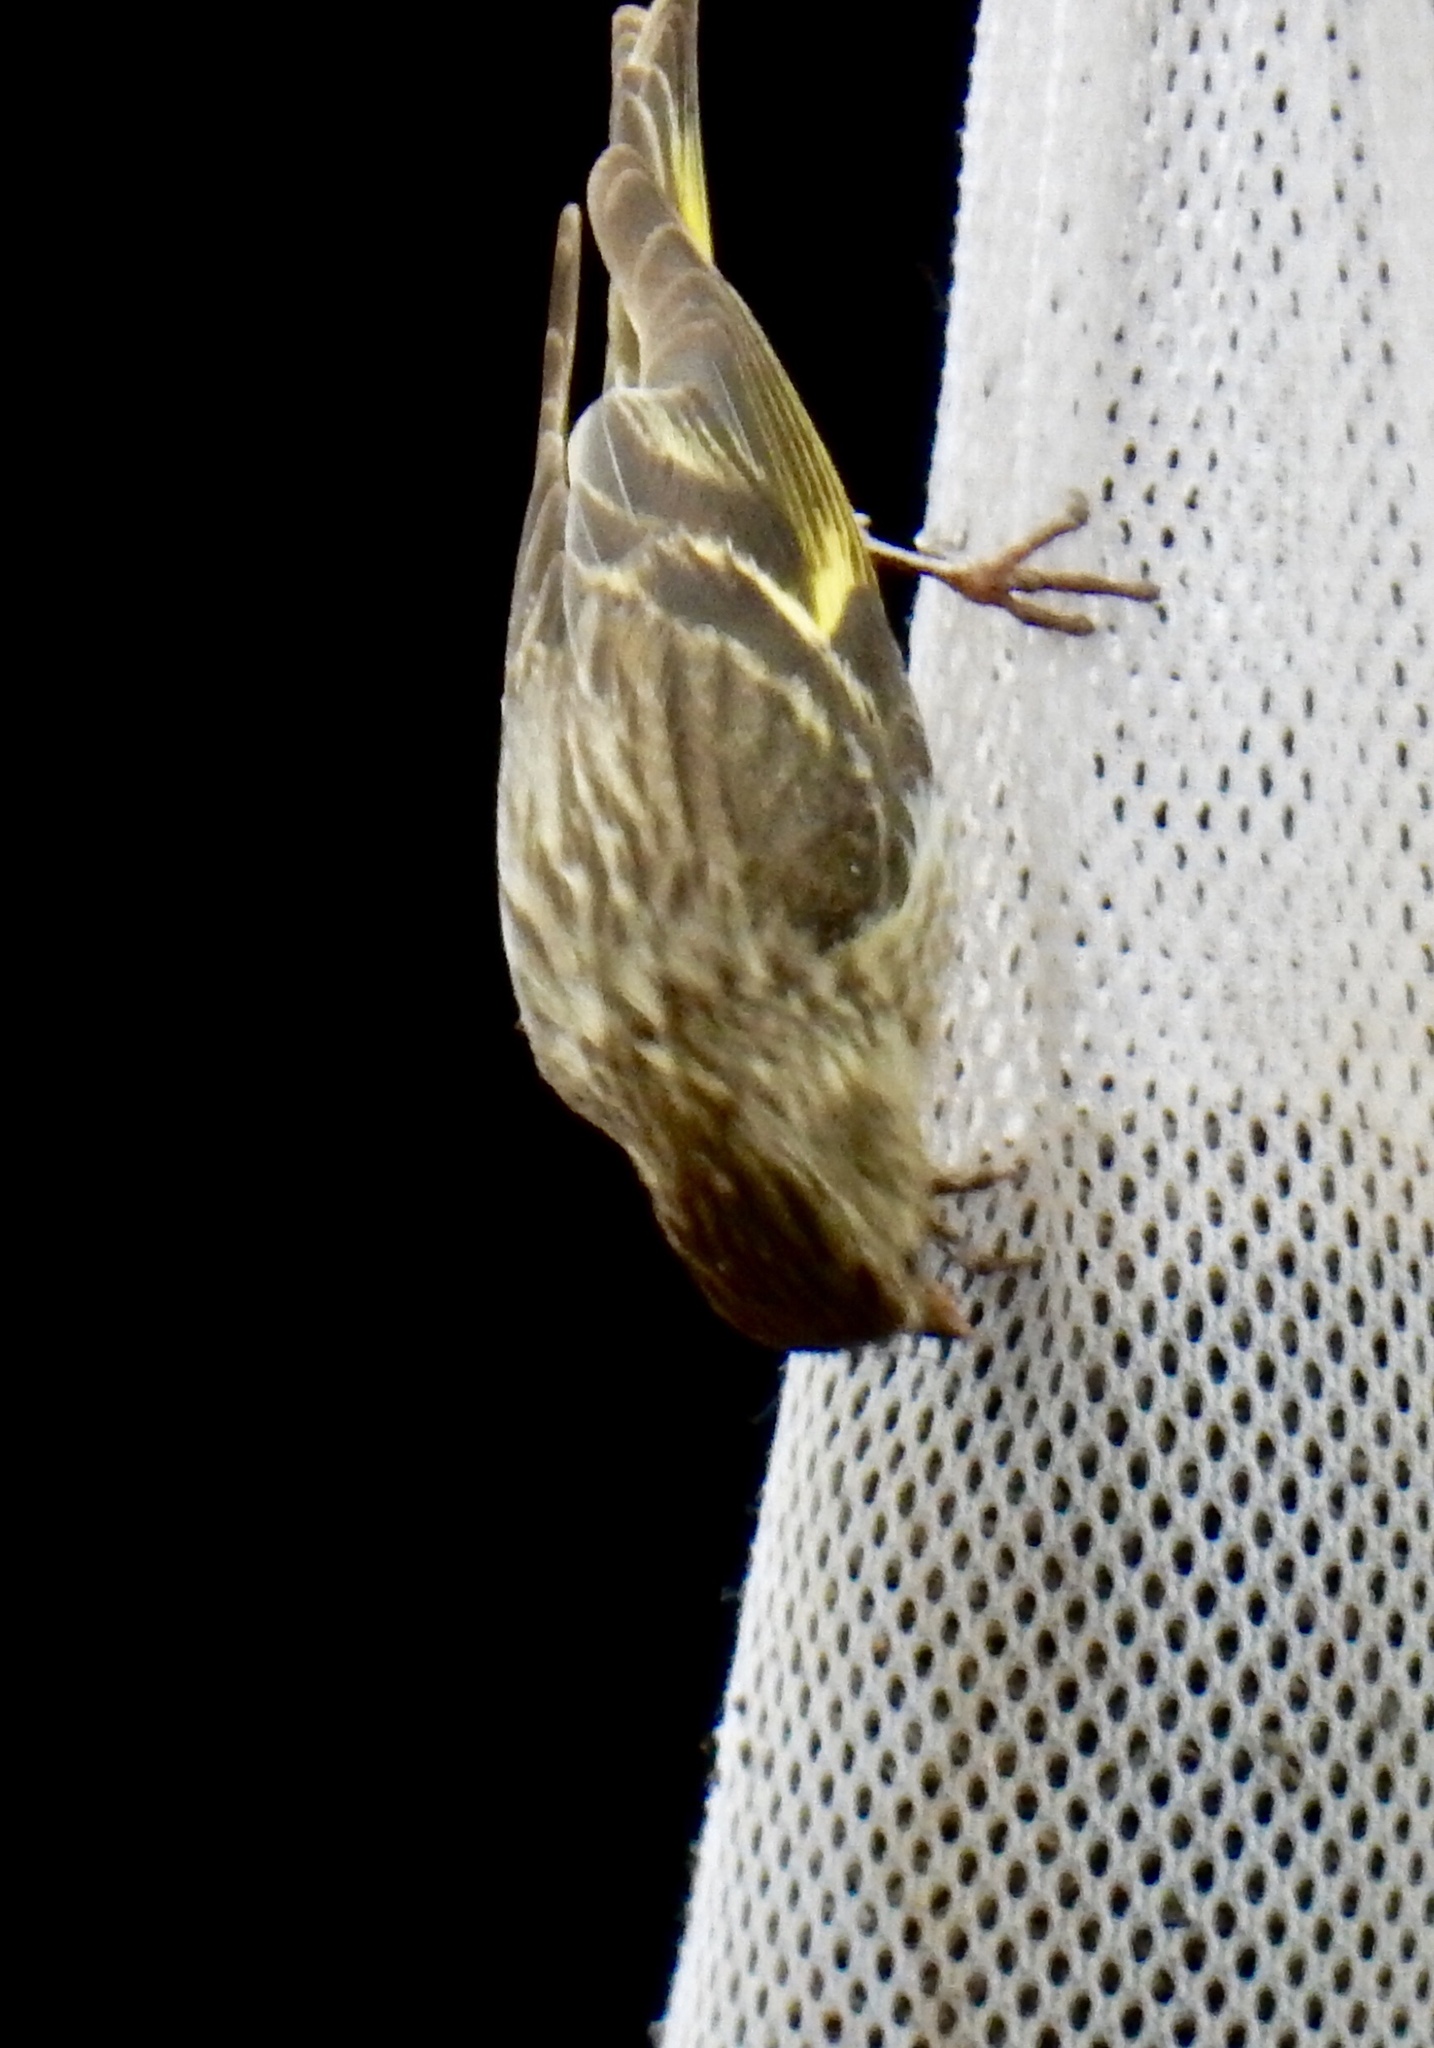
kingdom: Animalia
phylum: Chordata
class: Aves
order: Passeriformes
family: Fringillidae
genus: Spinus
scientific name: Spinus pinus
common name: Pine siskin
